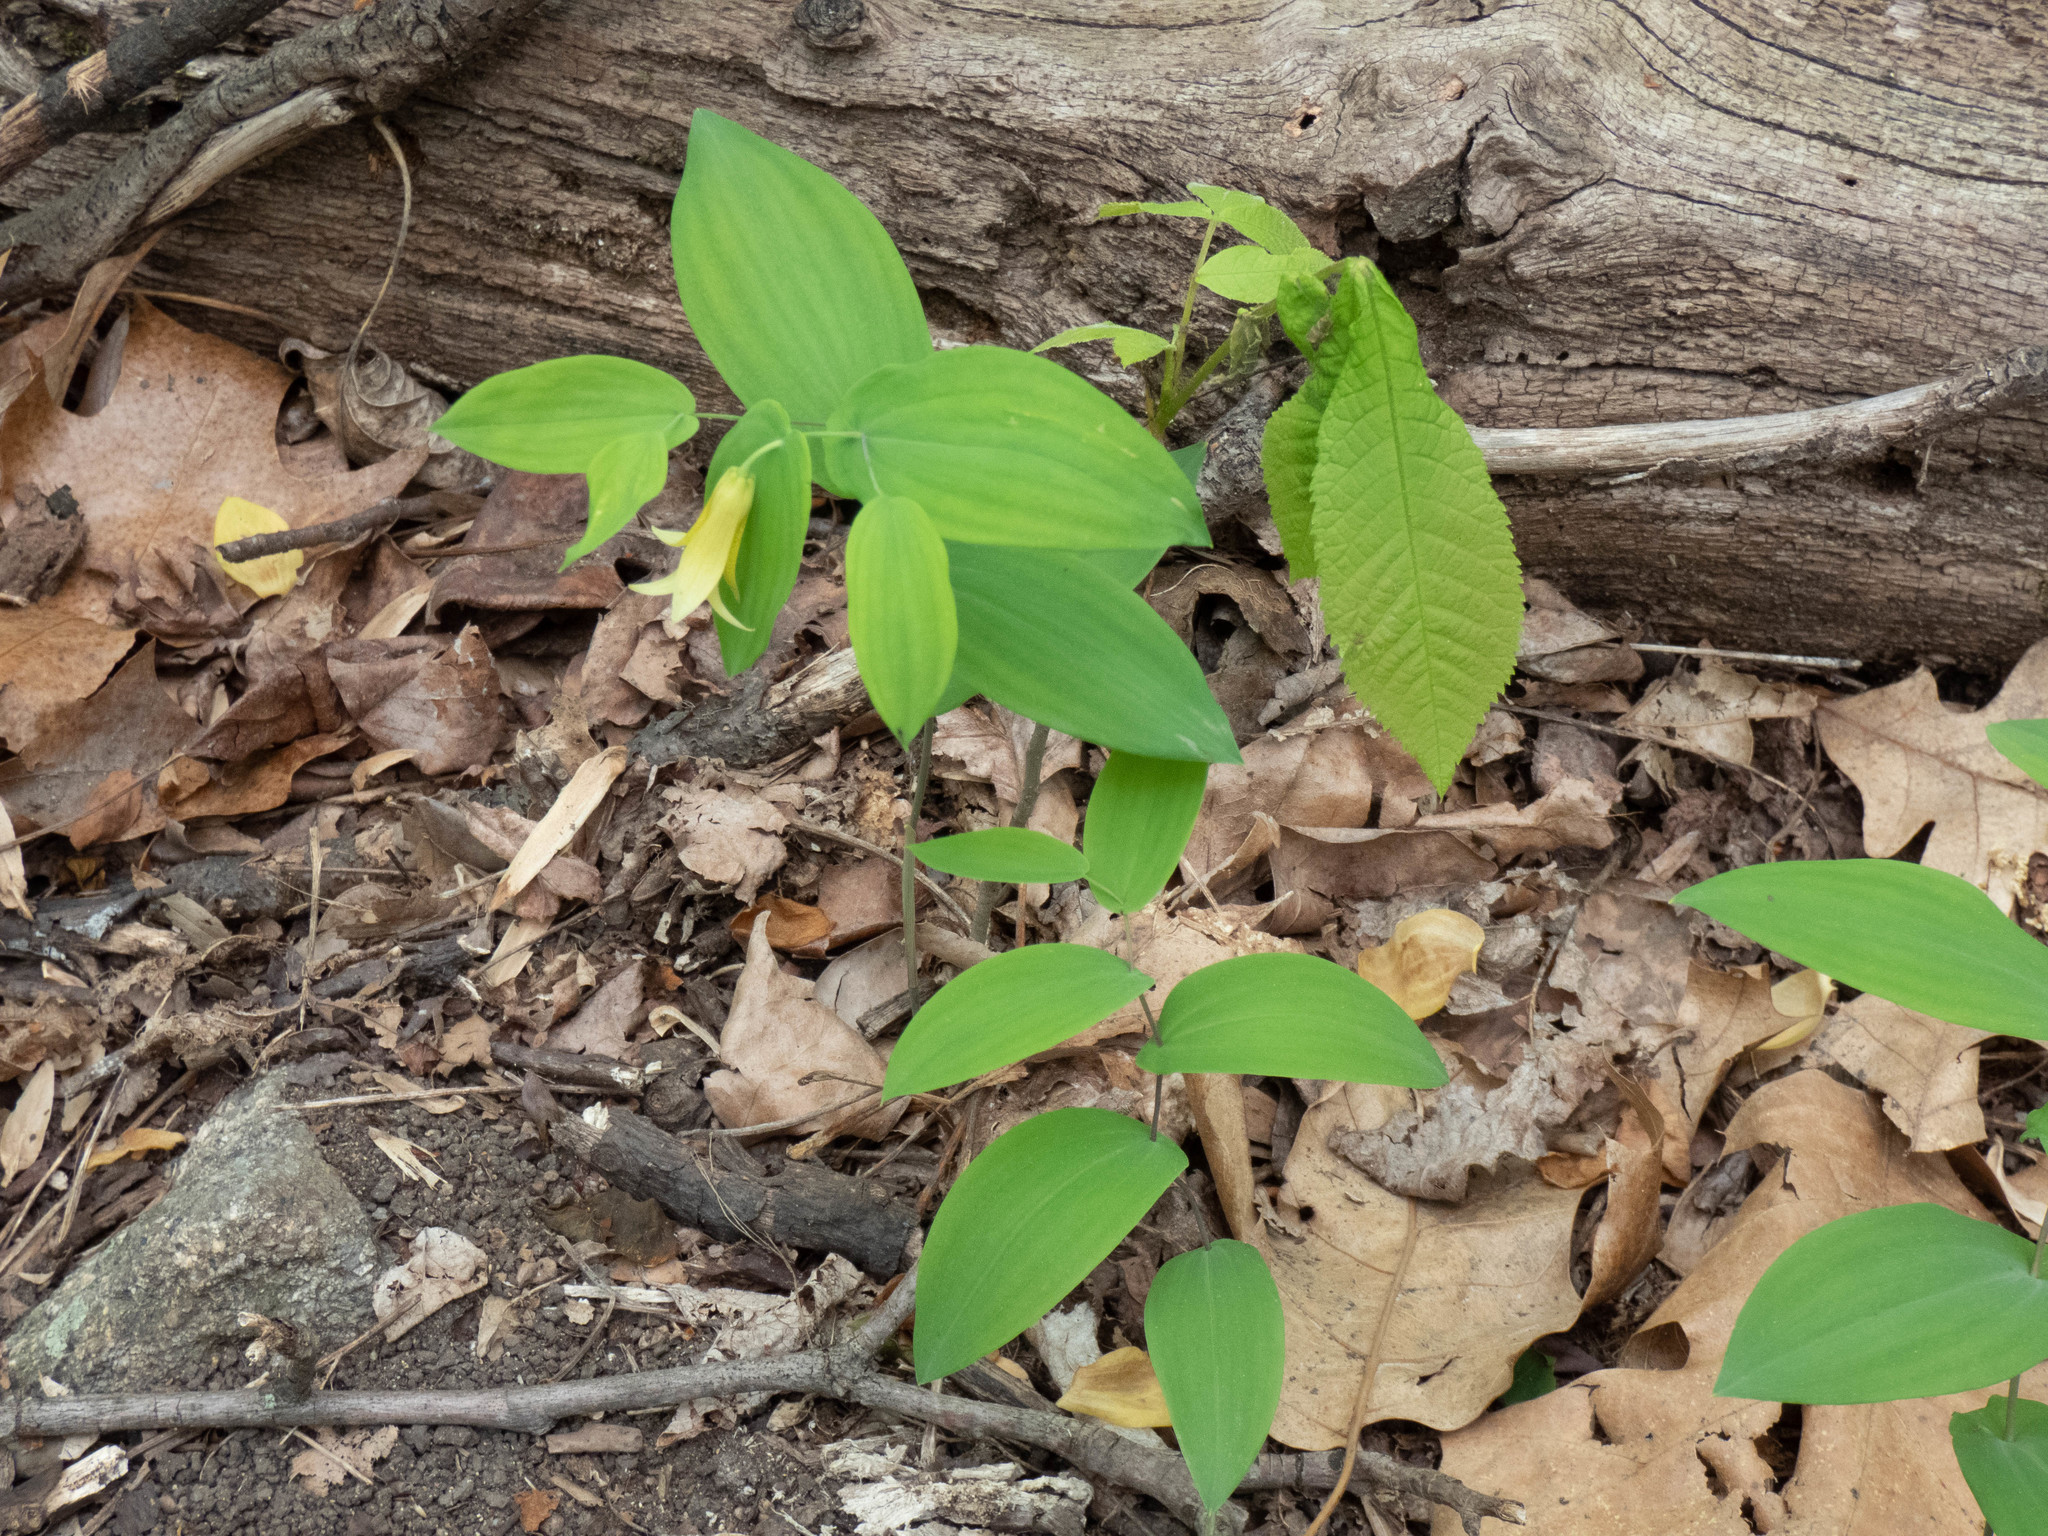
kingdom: Plantae
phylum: Tracheophyta
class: Liliopsida
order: Liliales
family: Colchicaceae
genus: Uvularia
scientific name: Uvularia perfoliata
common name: Perfoliate bellwort
